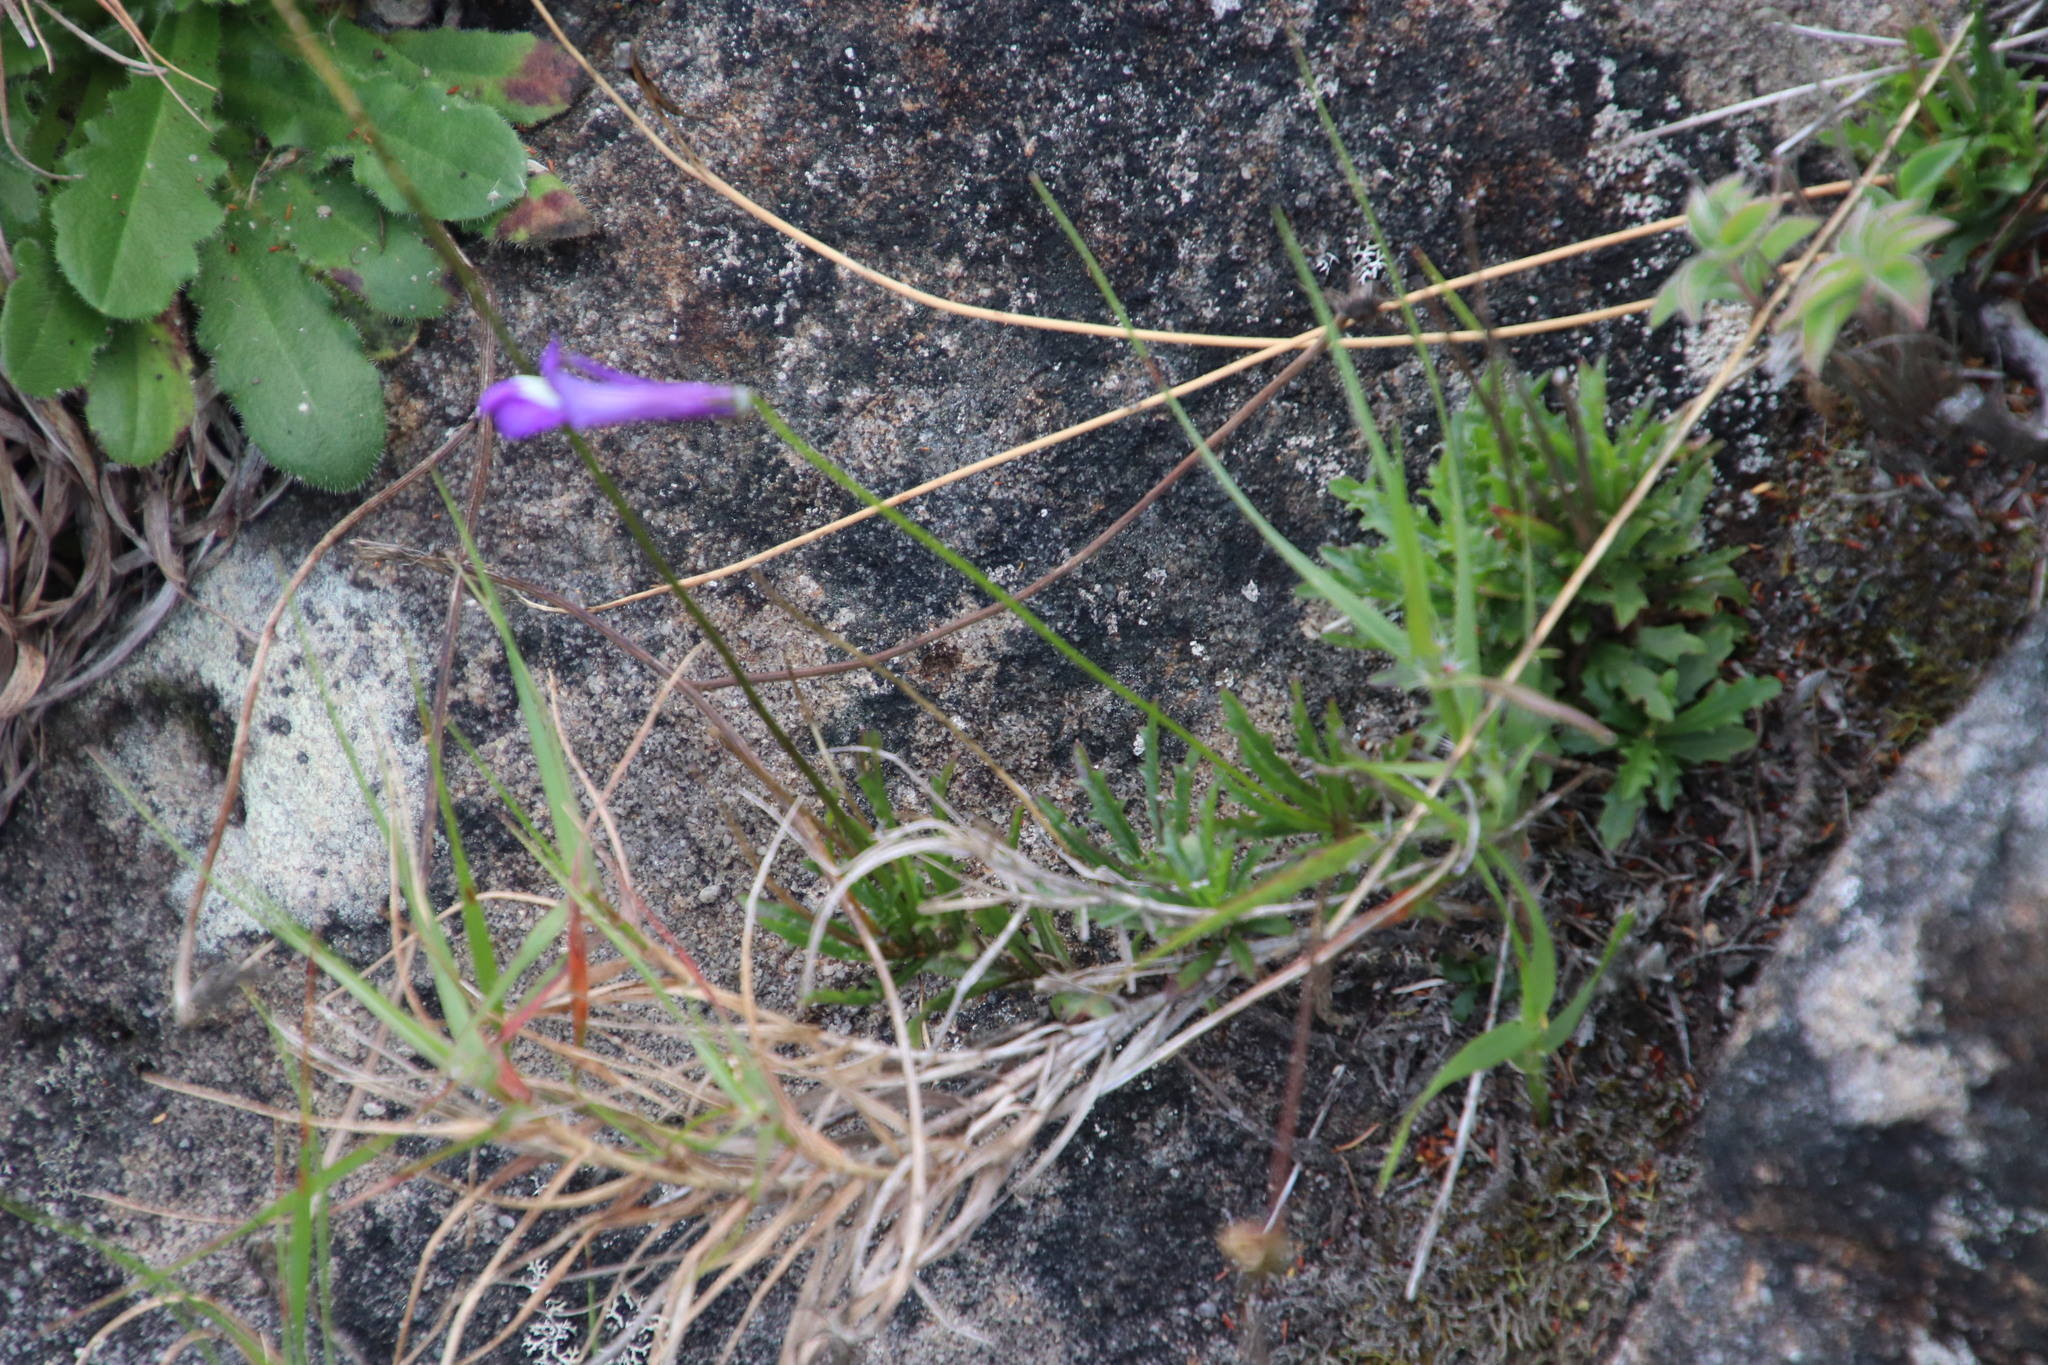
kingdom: Plantae
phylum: Tracheophyta
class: Magnoliopsida
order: Asterales
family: Campanulaceae
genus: Lobelia
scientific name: Lobelia coronopifolia
